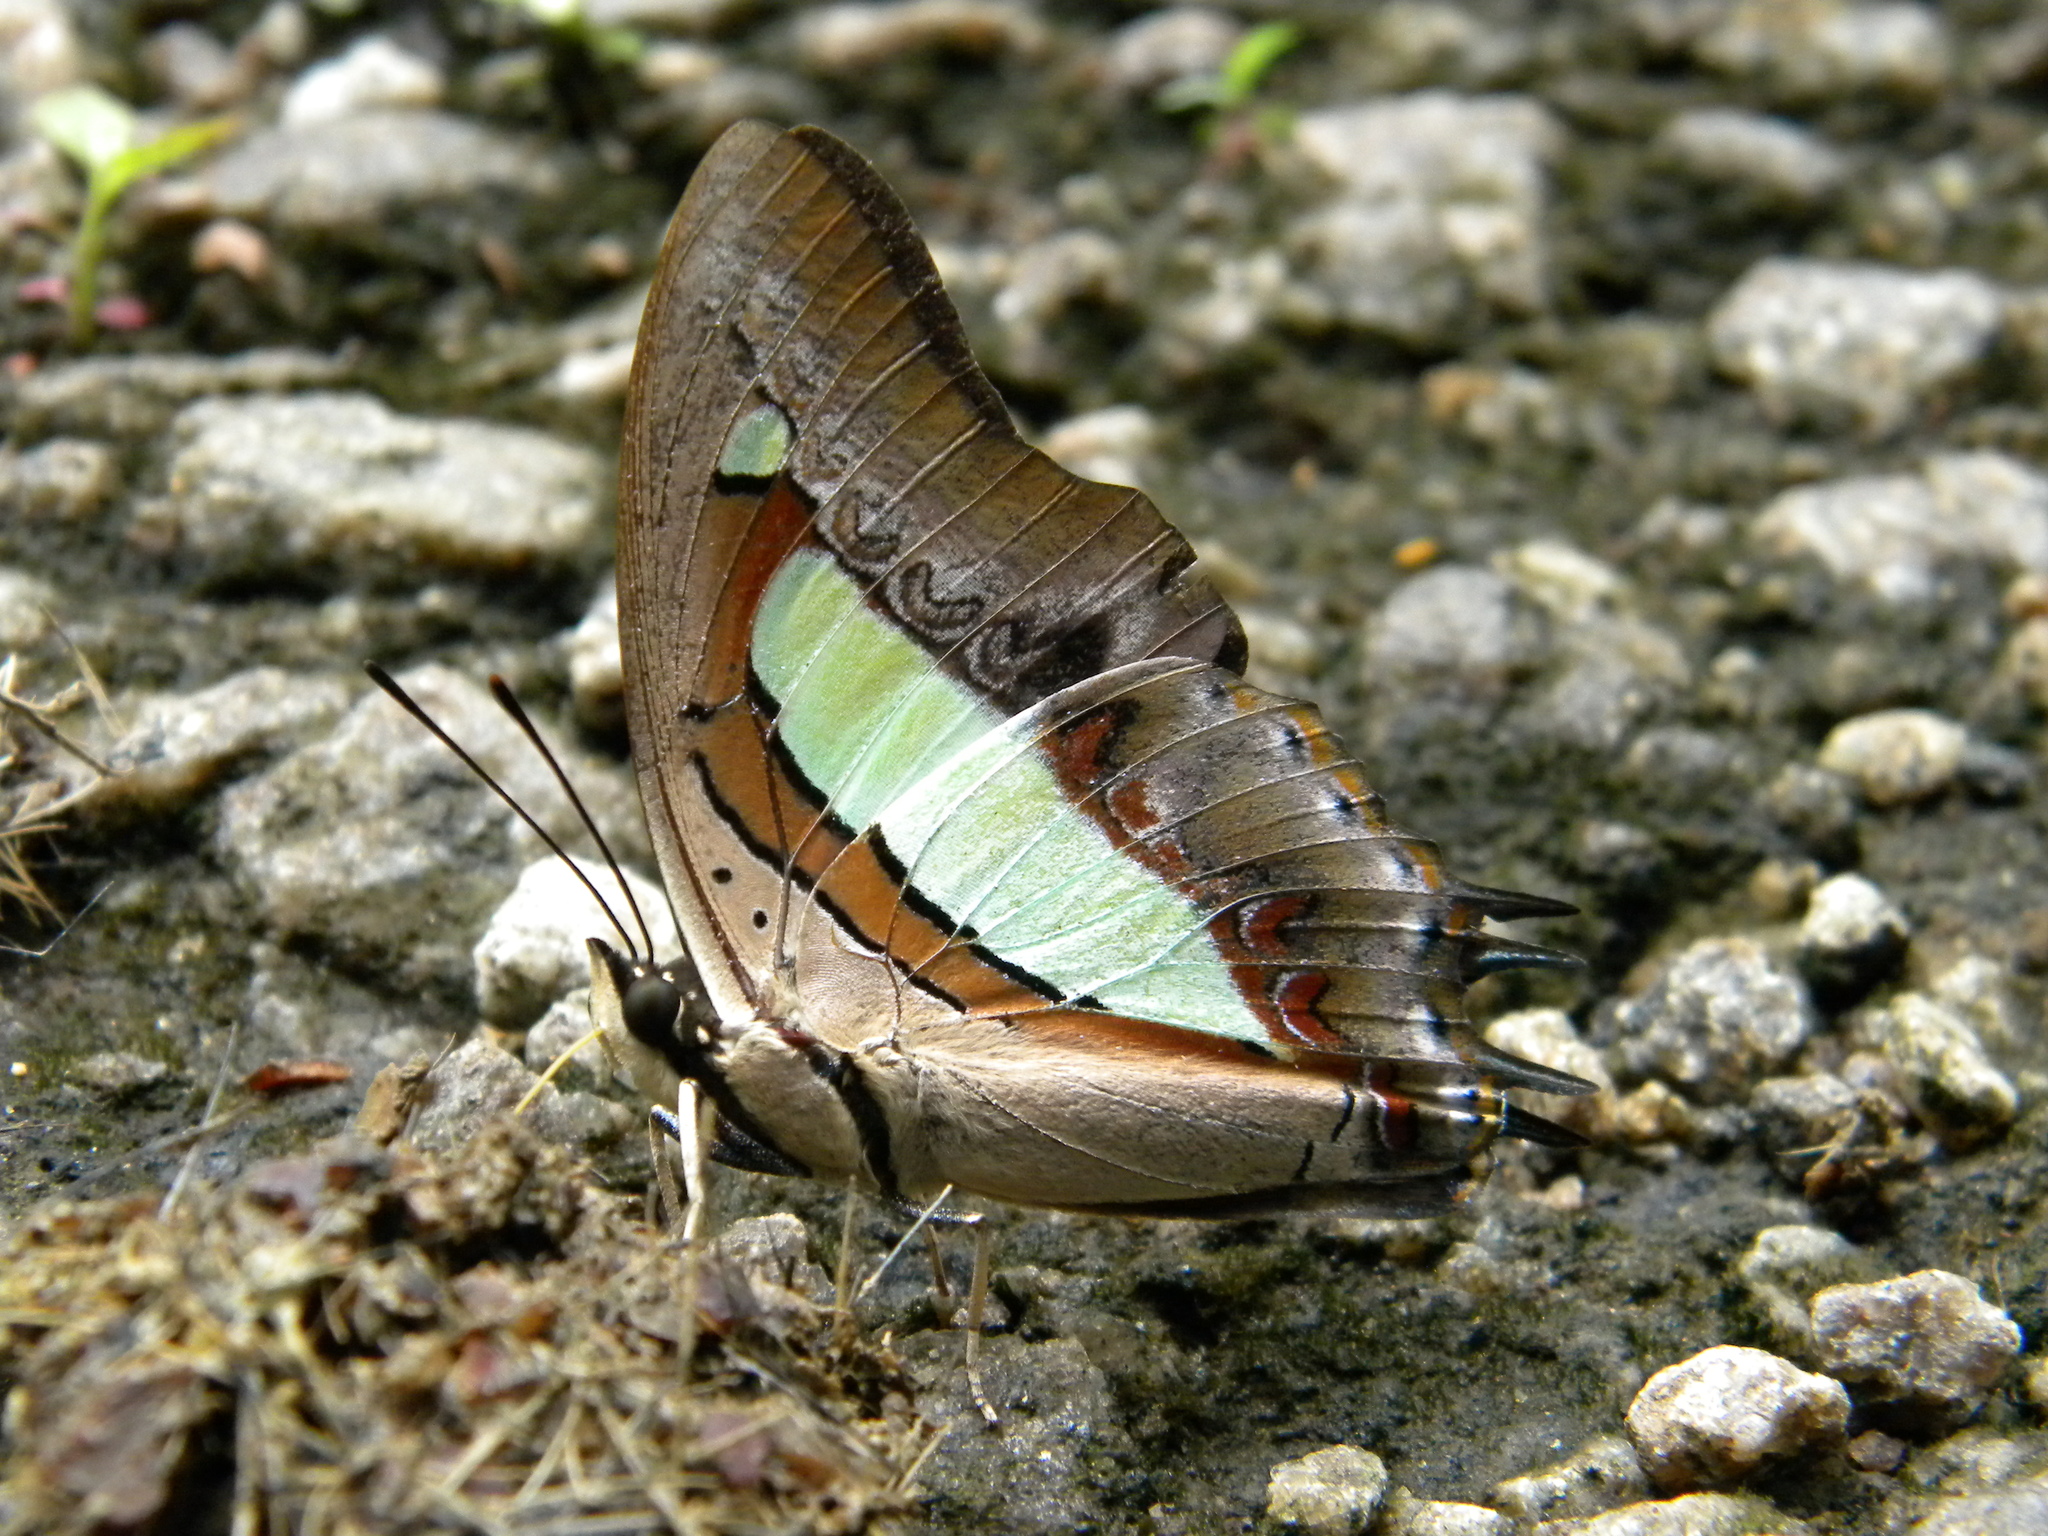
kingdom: Animalia
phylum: Arthropoda
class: Insecta
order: Lepidoptera
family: Nymphalidae
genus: Polyura
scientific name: Polyura
